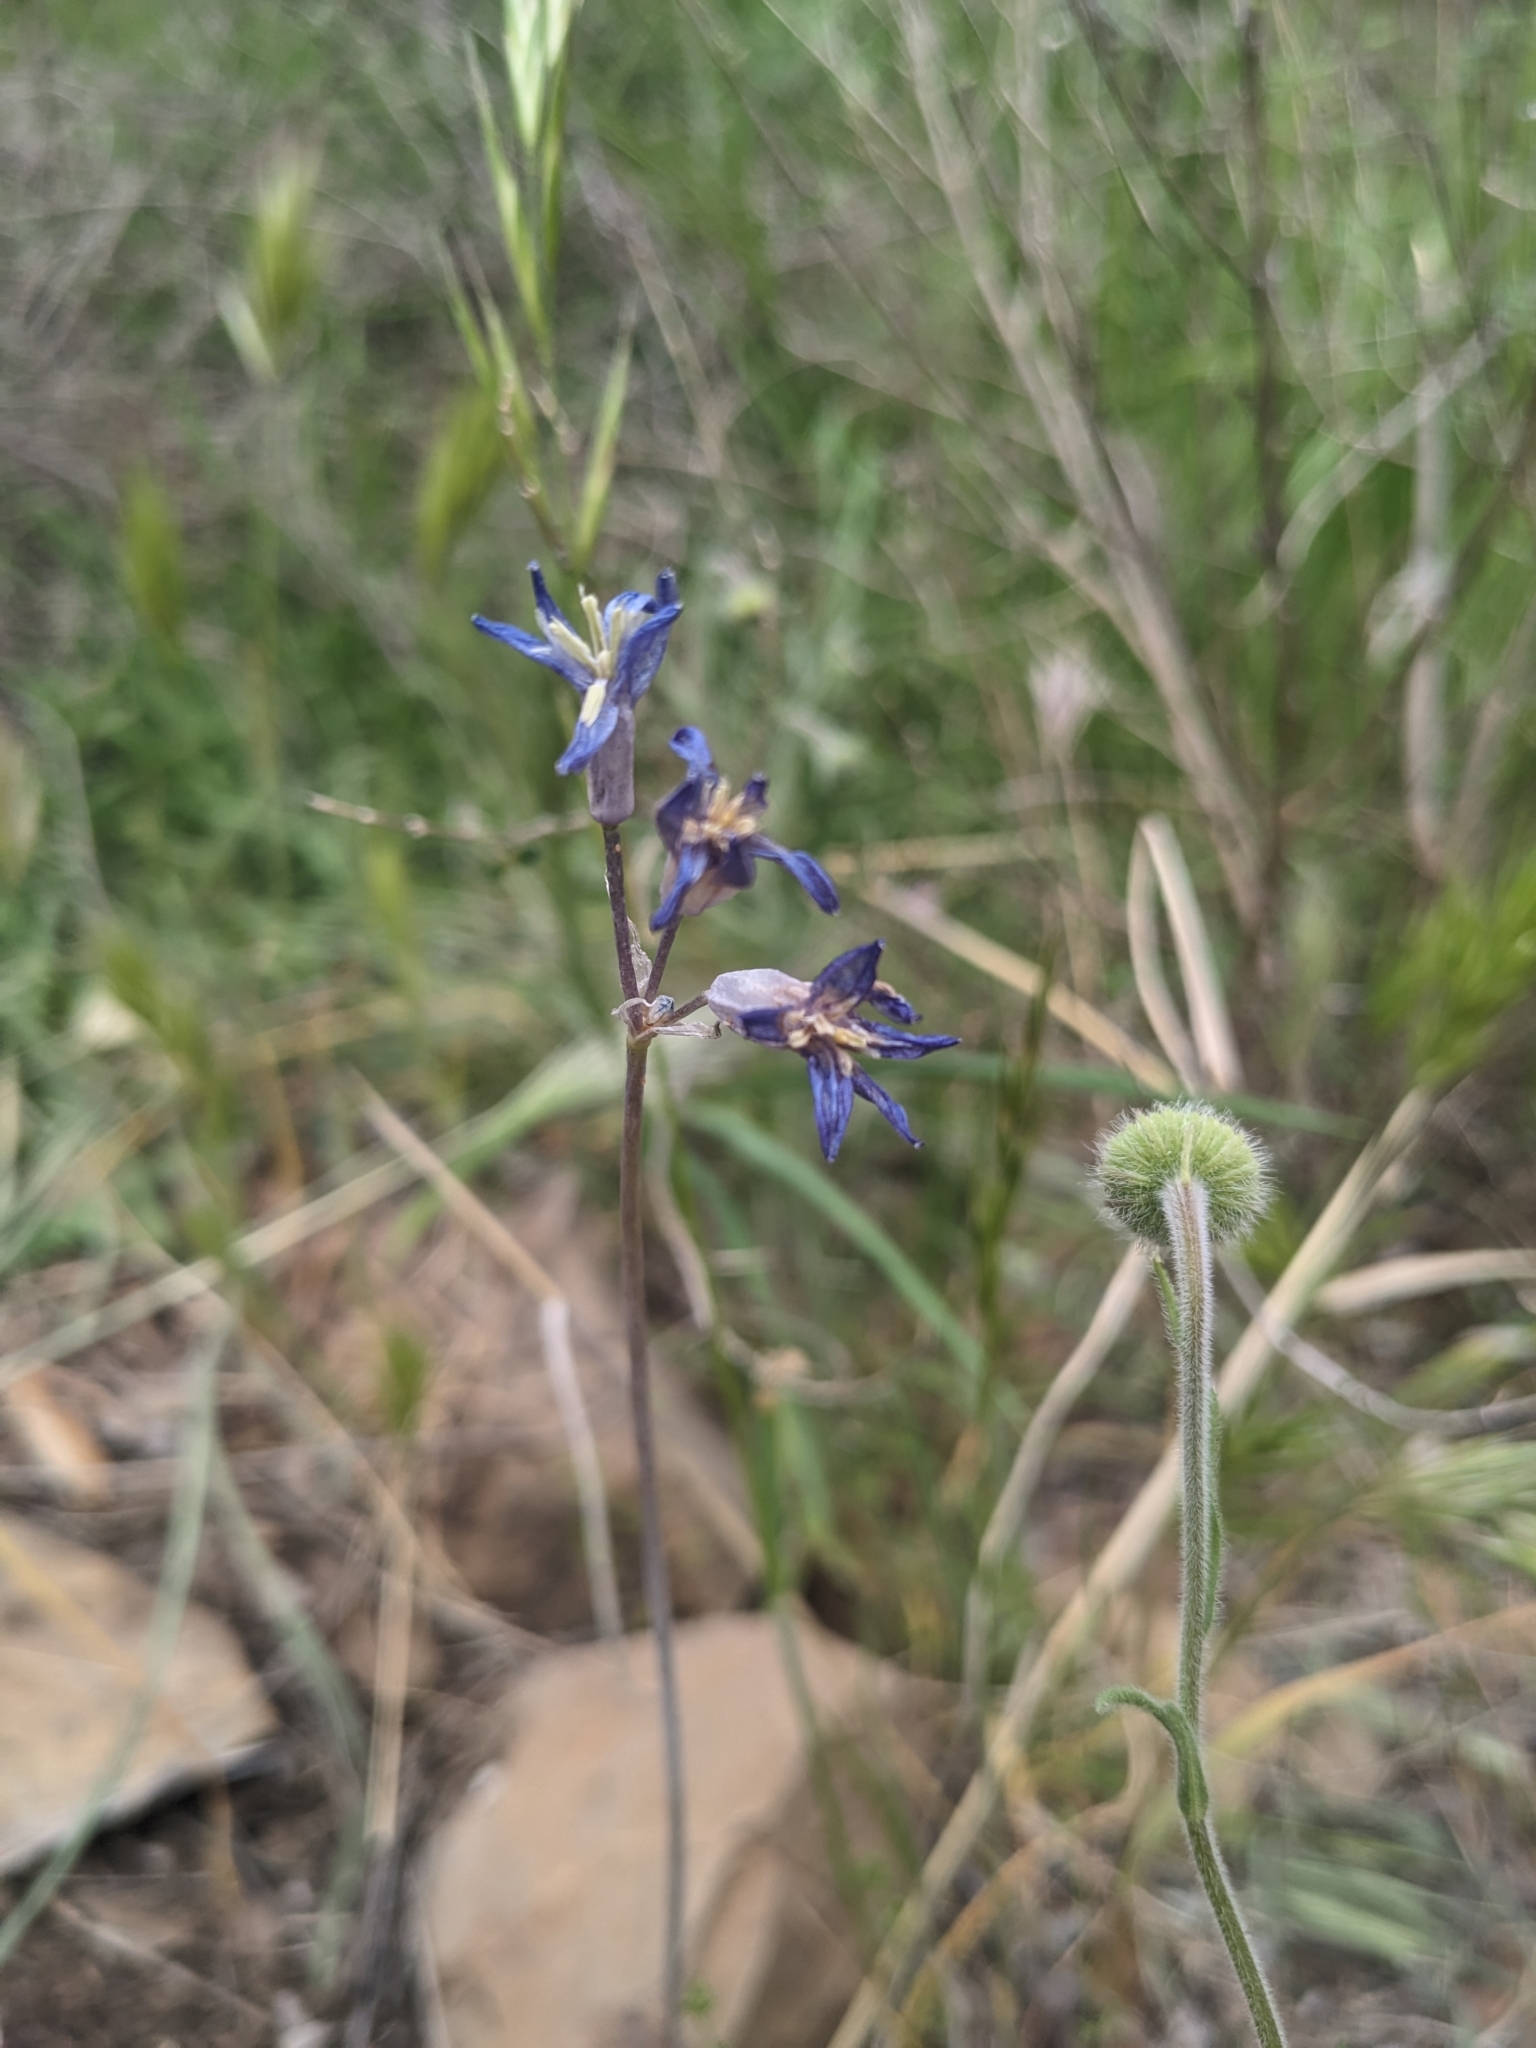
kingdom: Plantae
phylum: Tracheophyta
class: Magnoliopsida
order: Ranunculales
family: Ranunculaceae
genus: Delphinium
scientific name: Delphinium scaposum
